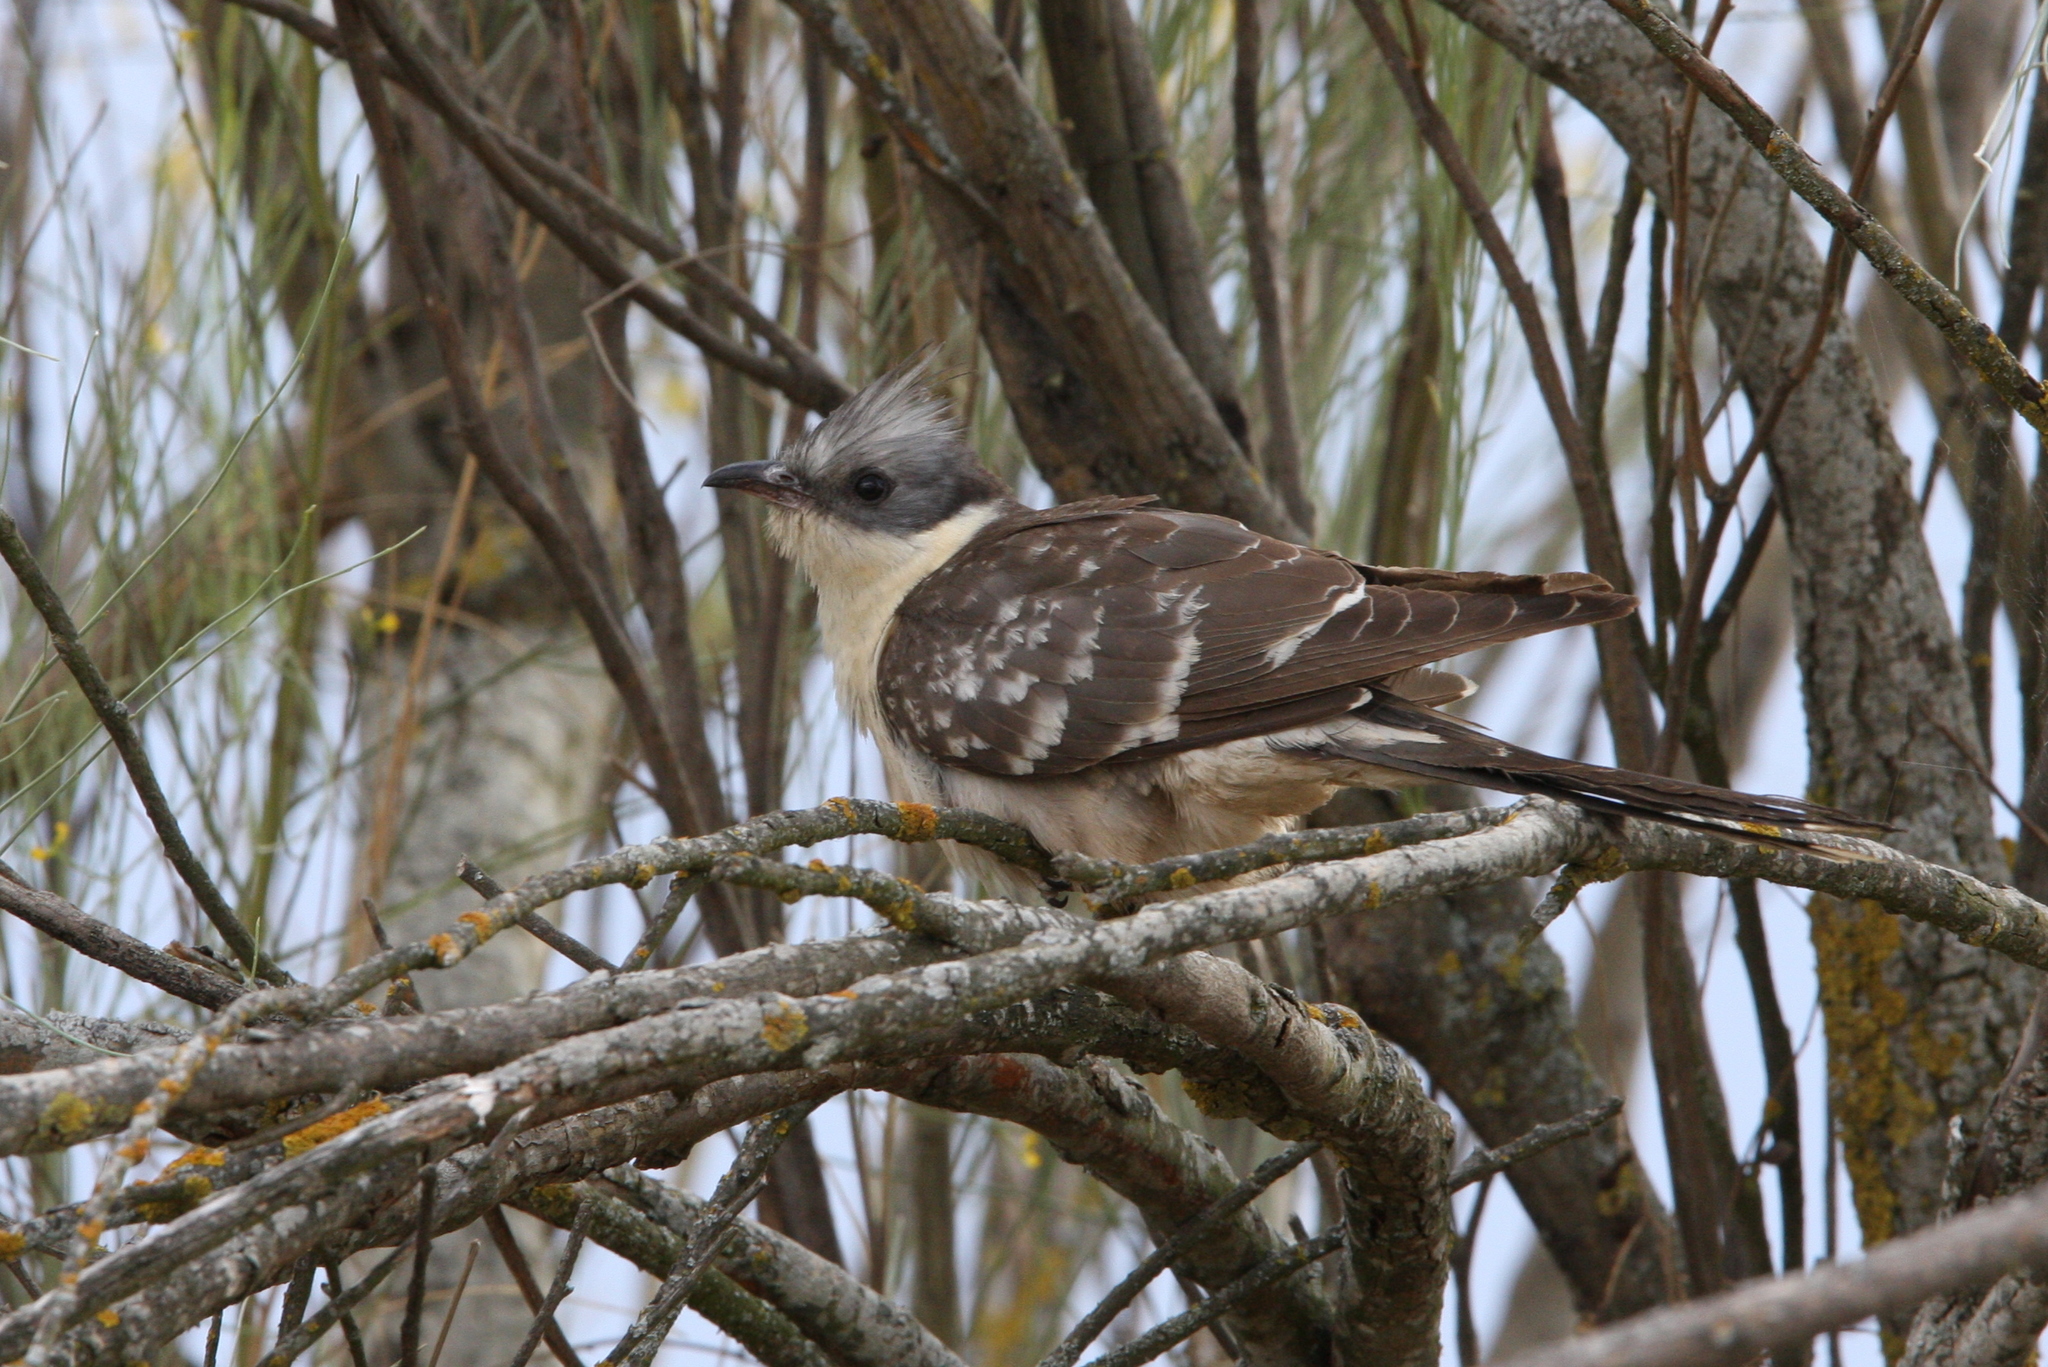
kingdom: Animalia
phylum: Chordata
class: Aves
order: Cuculiformes
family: Cuculidae
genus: Clamator
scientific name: Clamator glandarius
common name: Great spotted cuckoo
